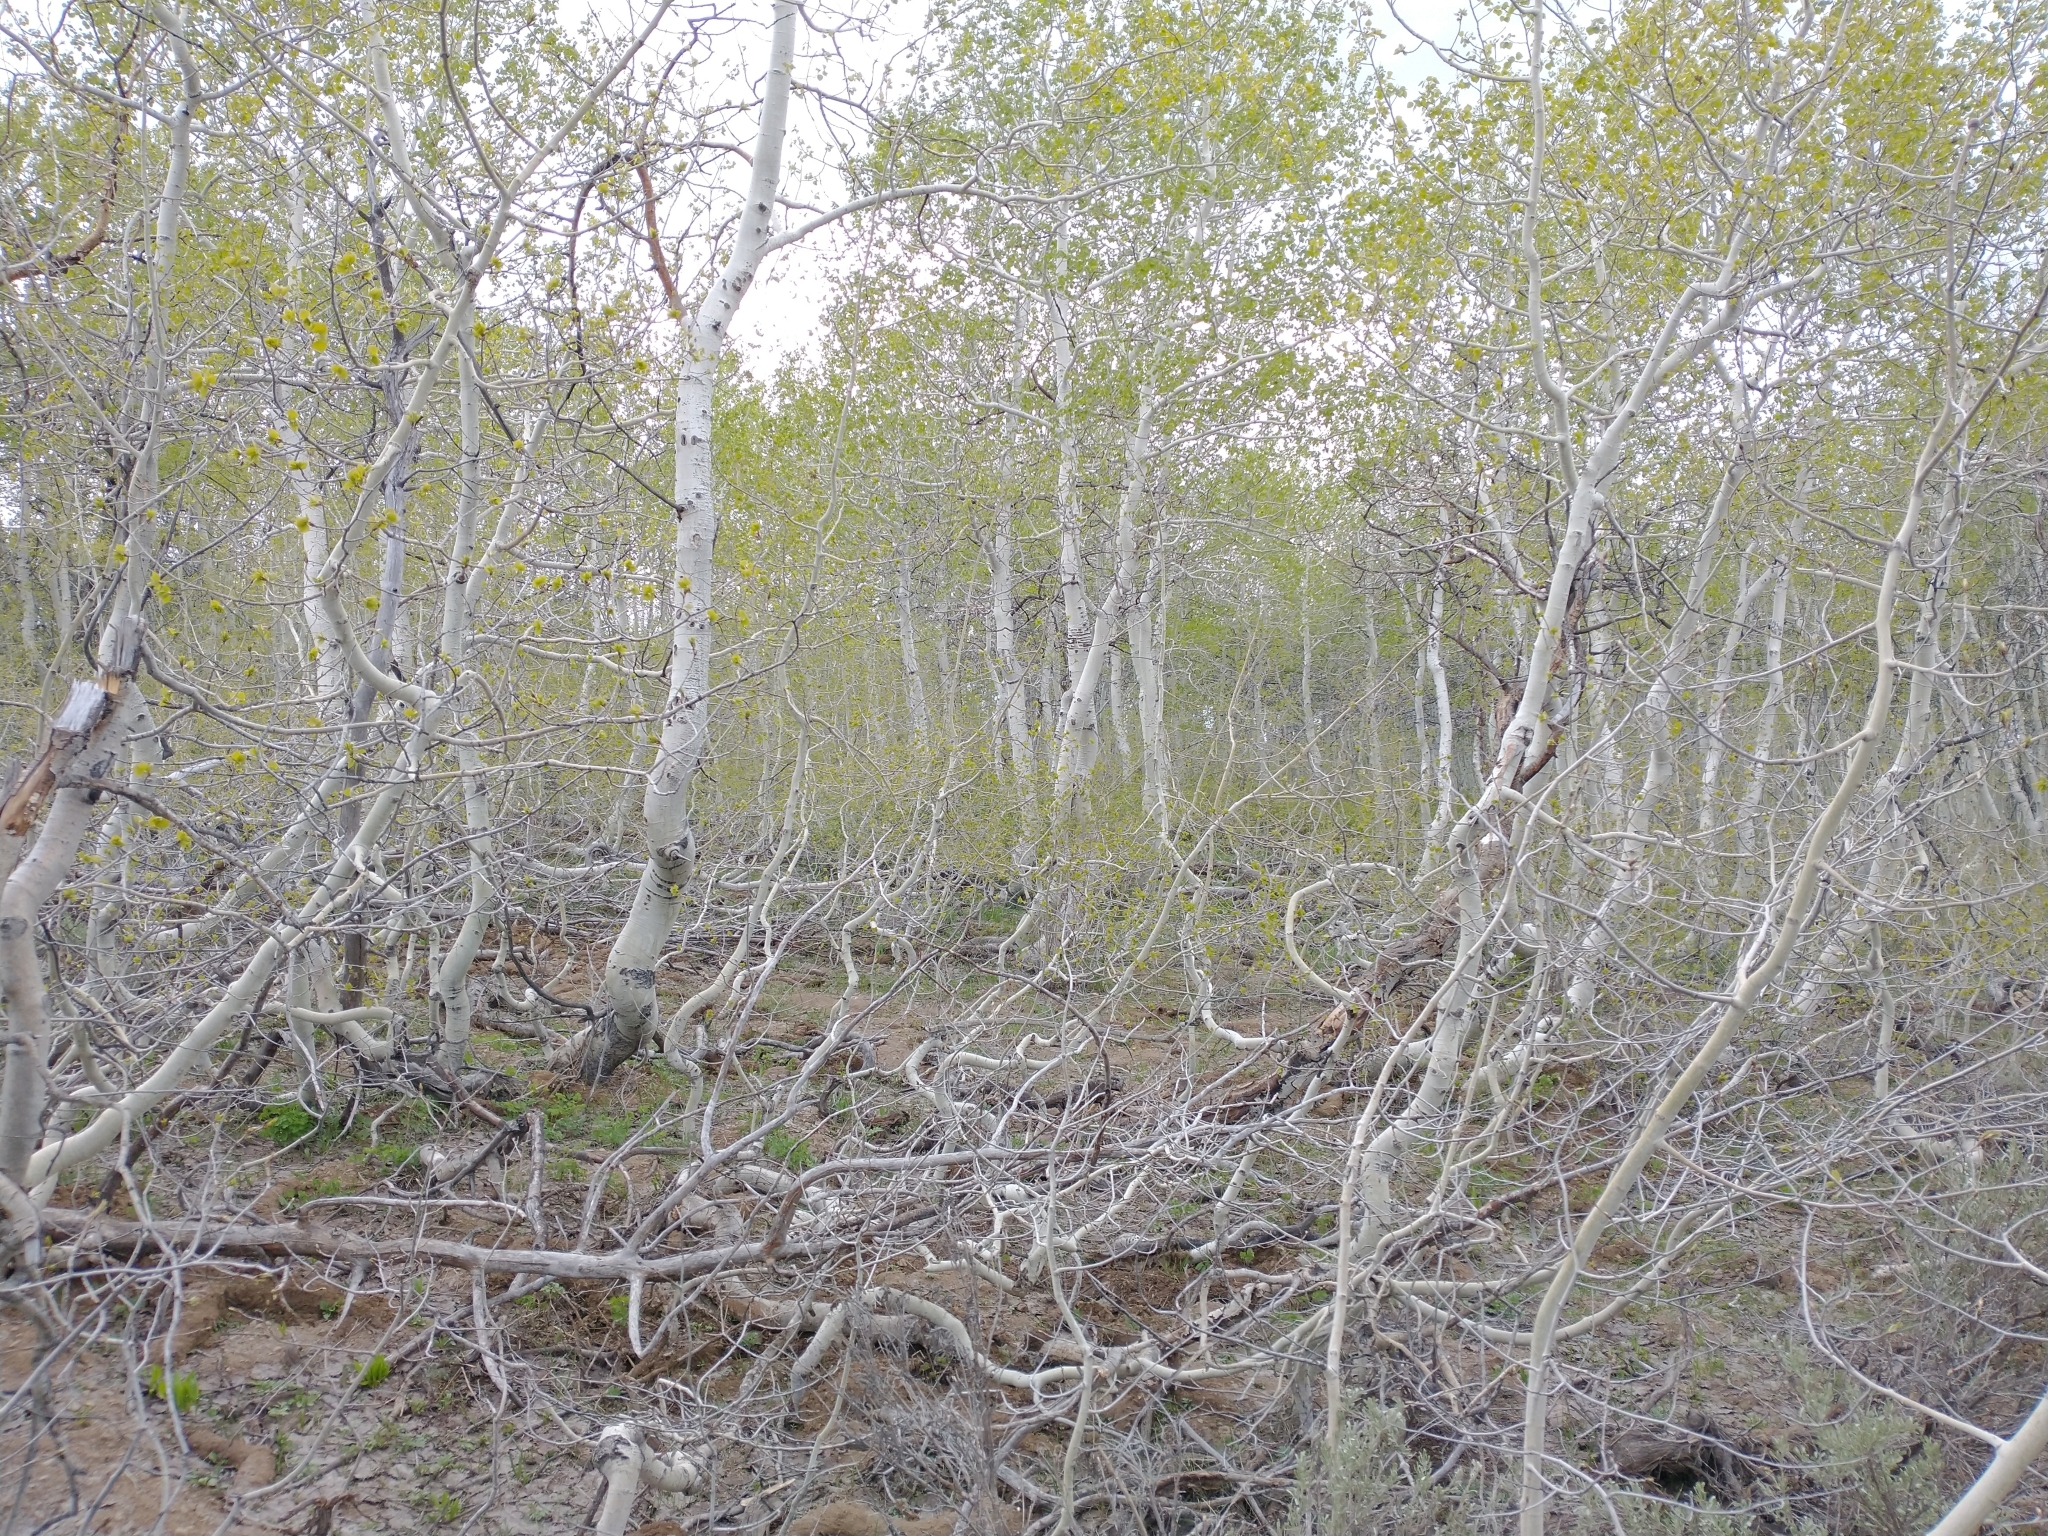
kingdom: Plantae
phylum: Tracheophyta
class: Magnoliopsida
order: Malpighiales
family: Salicaceae
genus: Populus
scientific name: Populus tremuloides
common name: Quaking aspen
